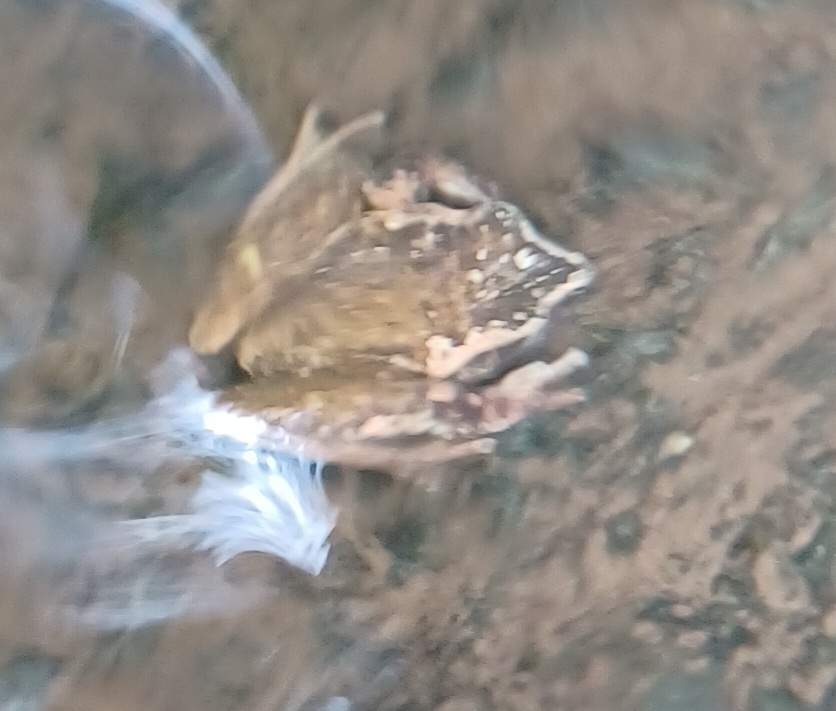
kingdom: Animalia
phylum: Chordata
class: Amphibia
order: Anura
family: Pelodryadidae
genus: Litoria
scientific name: Litoria latopalmata
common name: Broad-palmed rocket frog
